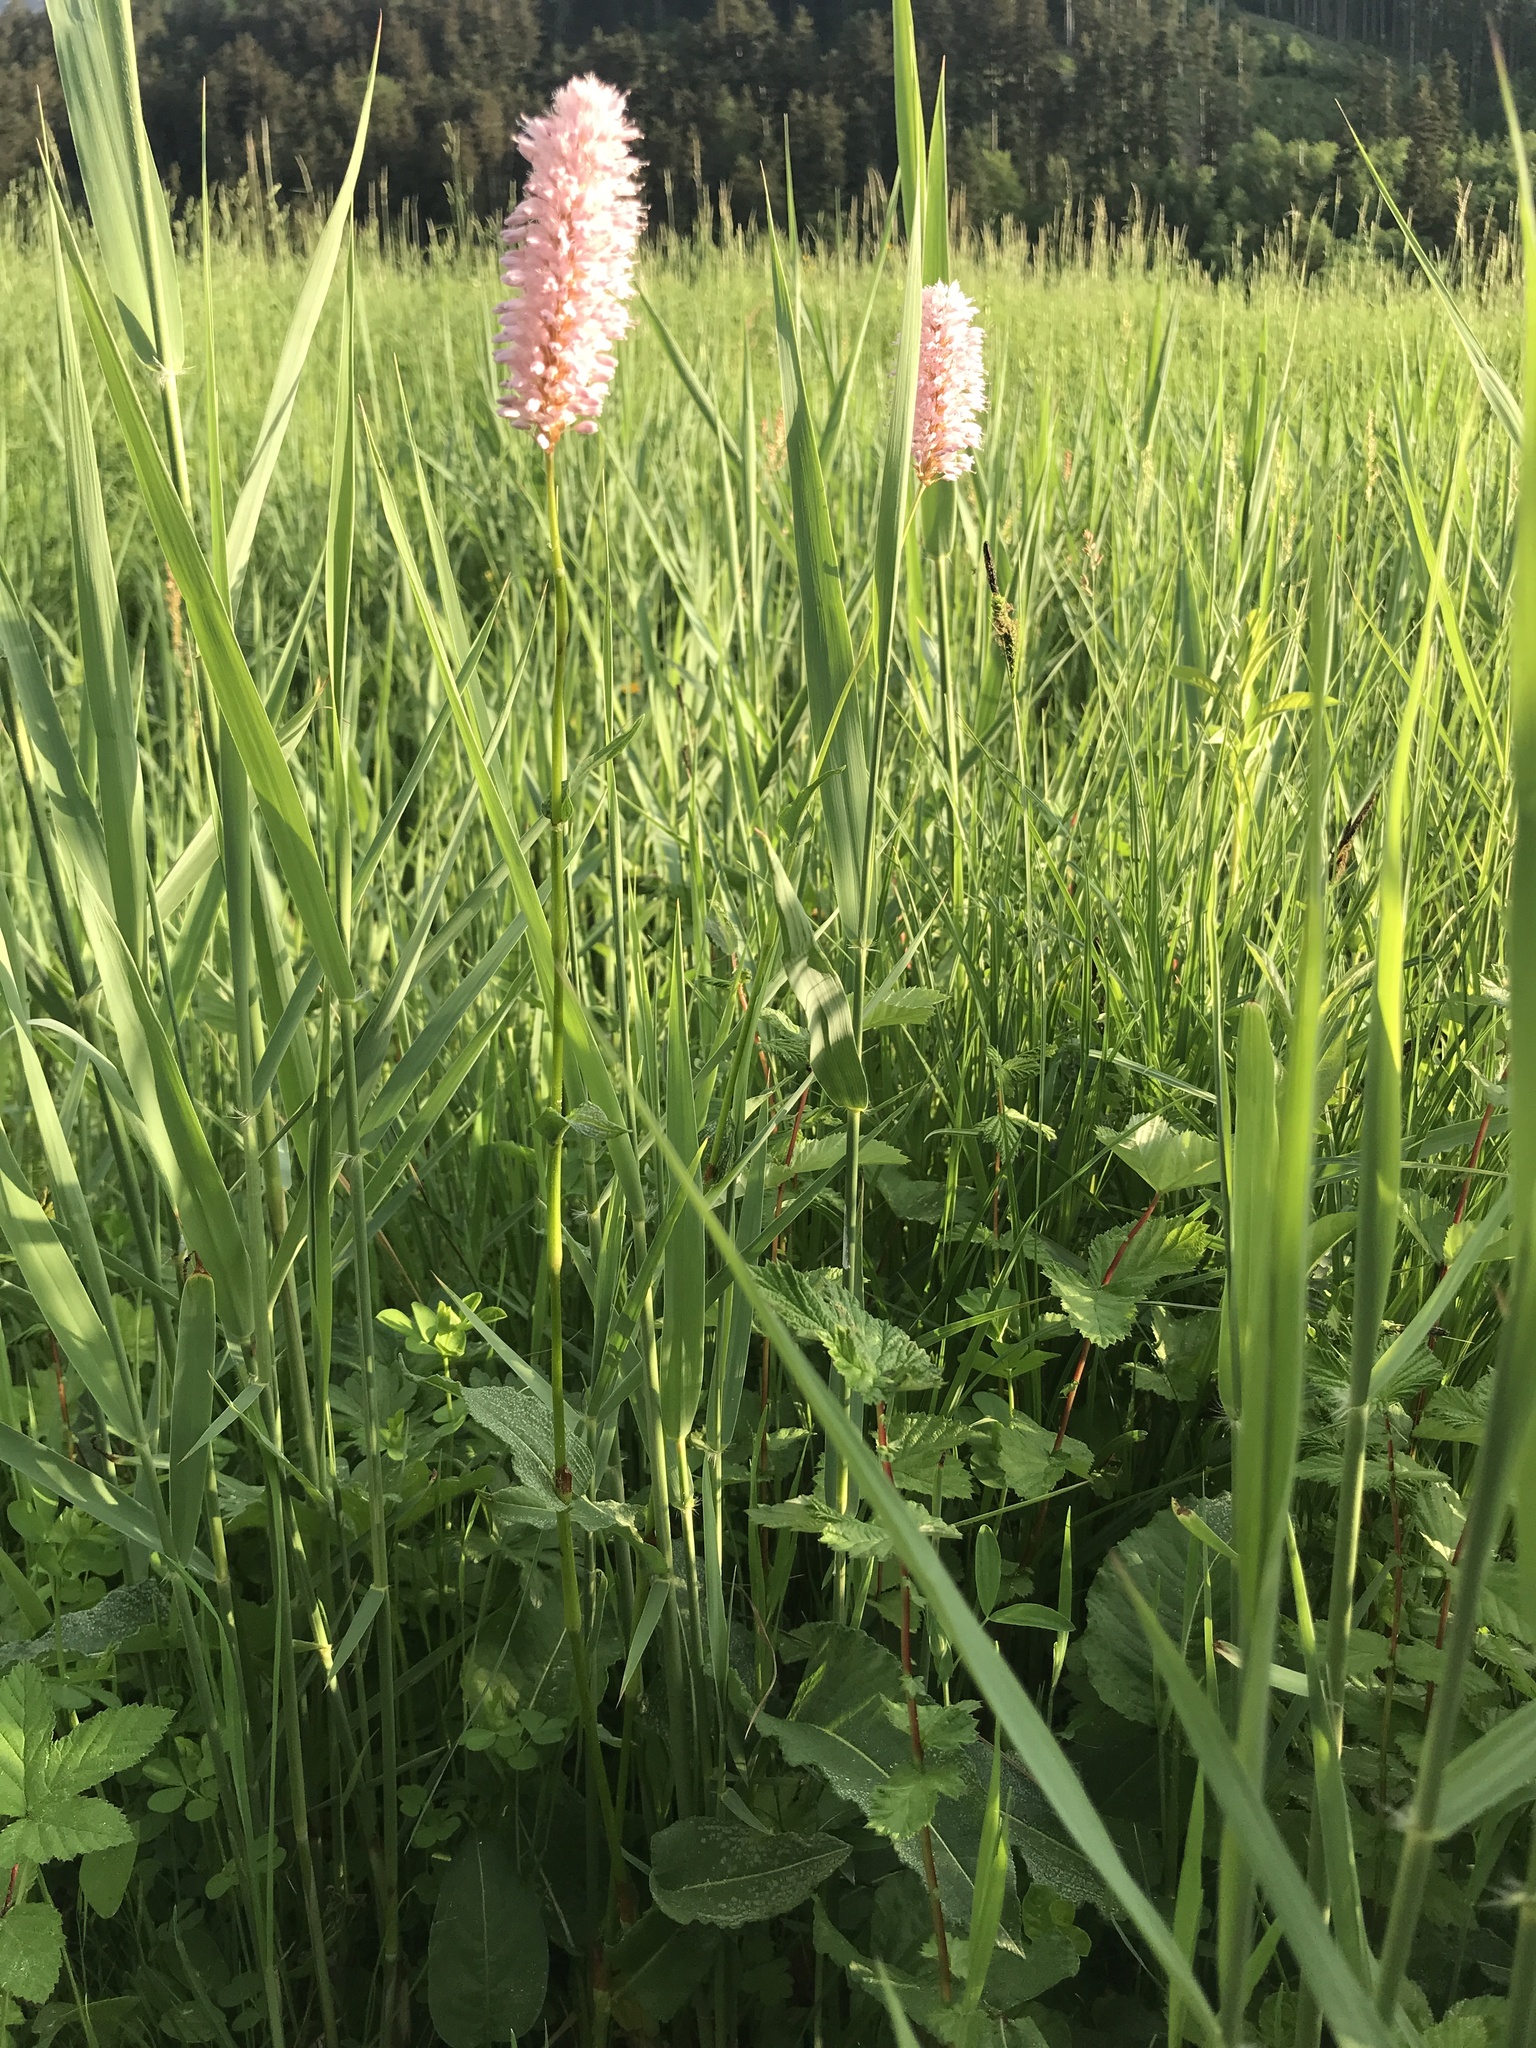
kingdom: Plantae
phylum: Tracheophyta
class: Magnoliopsida
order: Caryophyllales
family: Polygonaceae
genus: Bistorta
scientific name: Bistorta officinalis
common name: Common bistort
